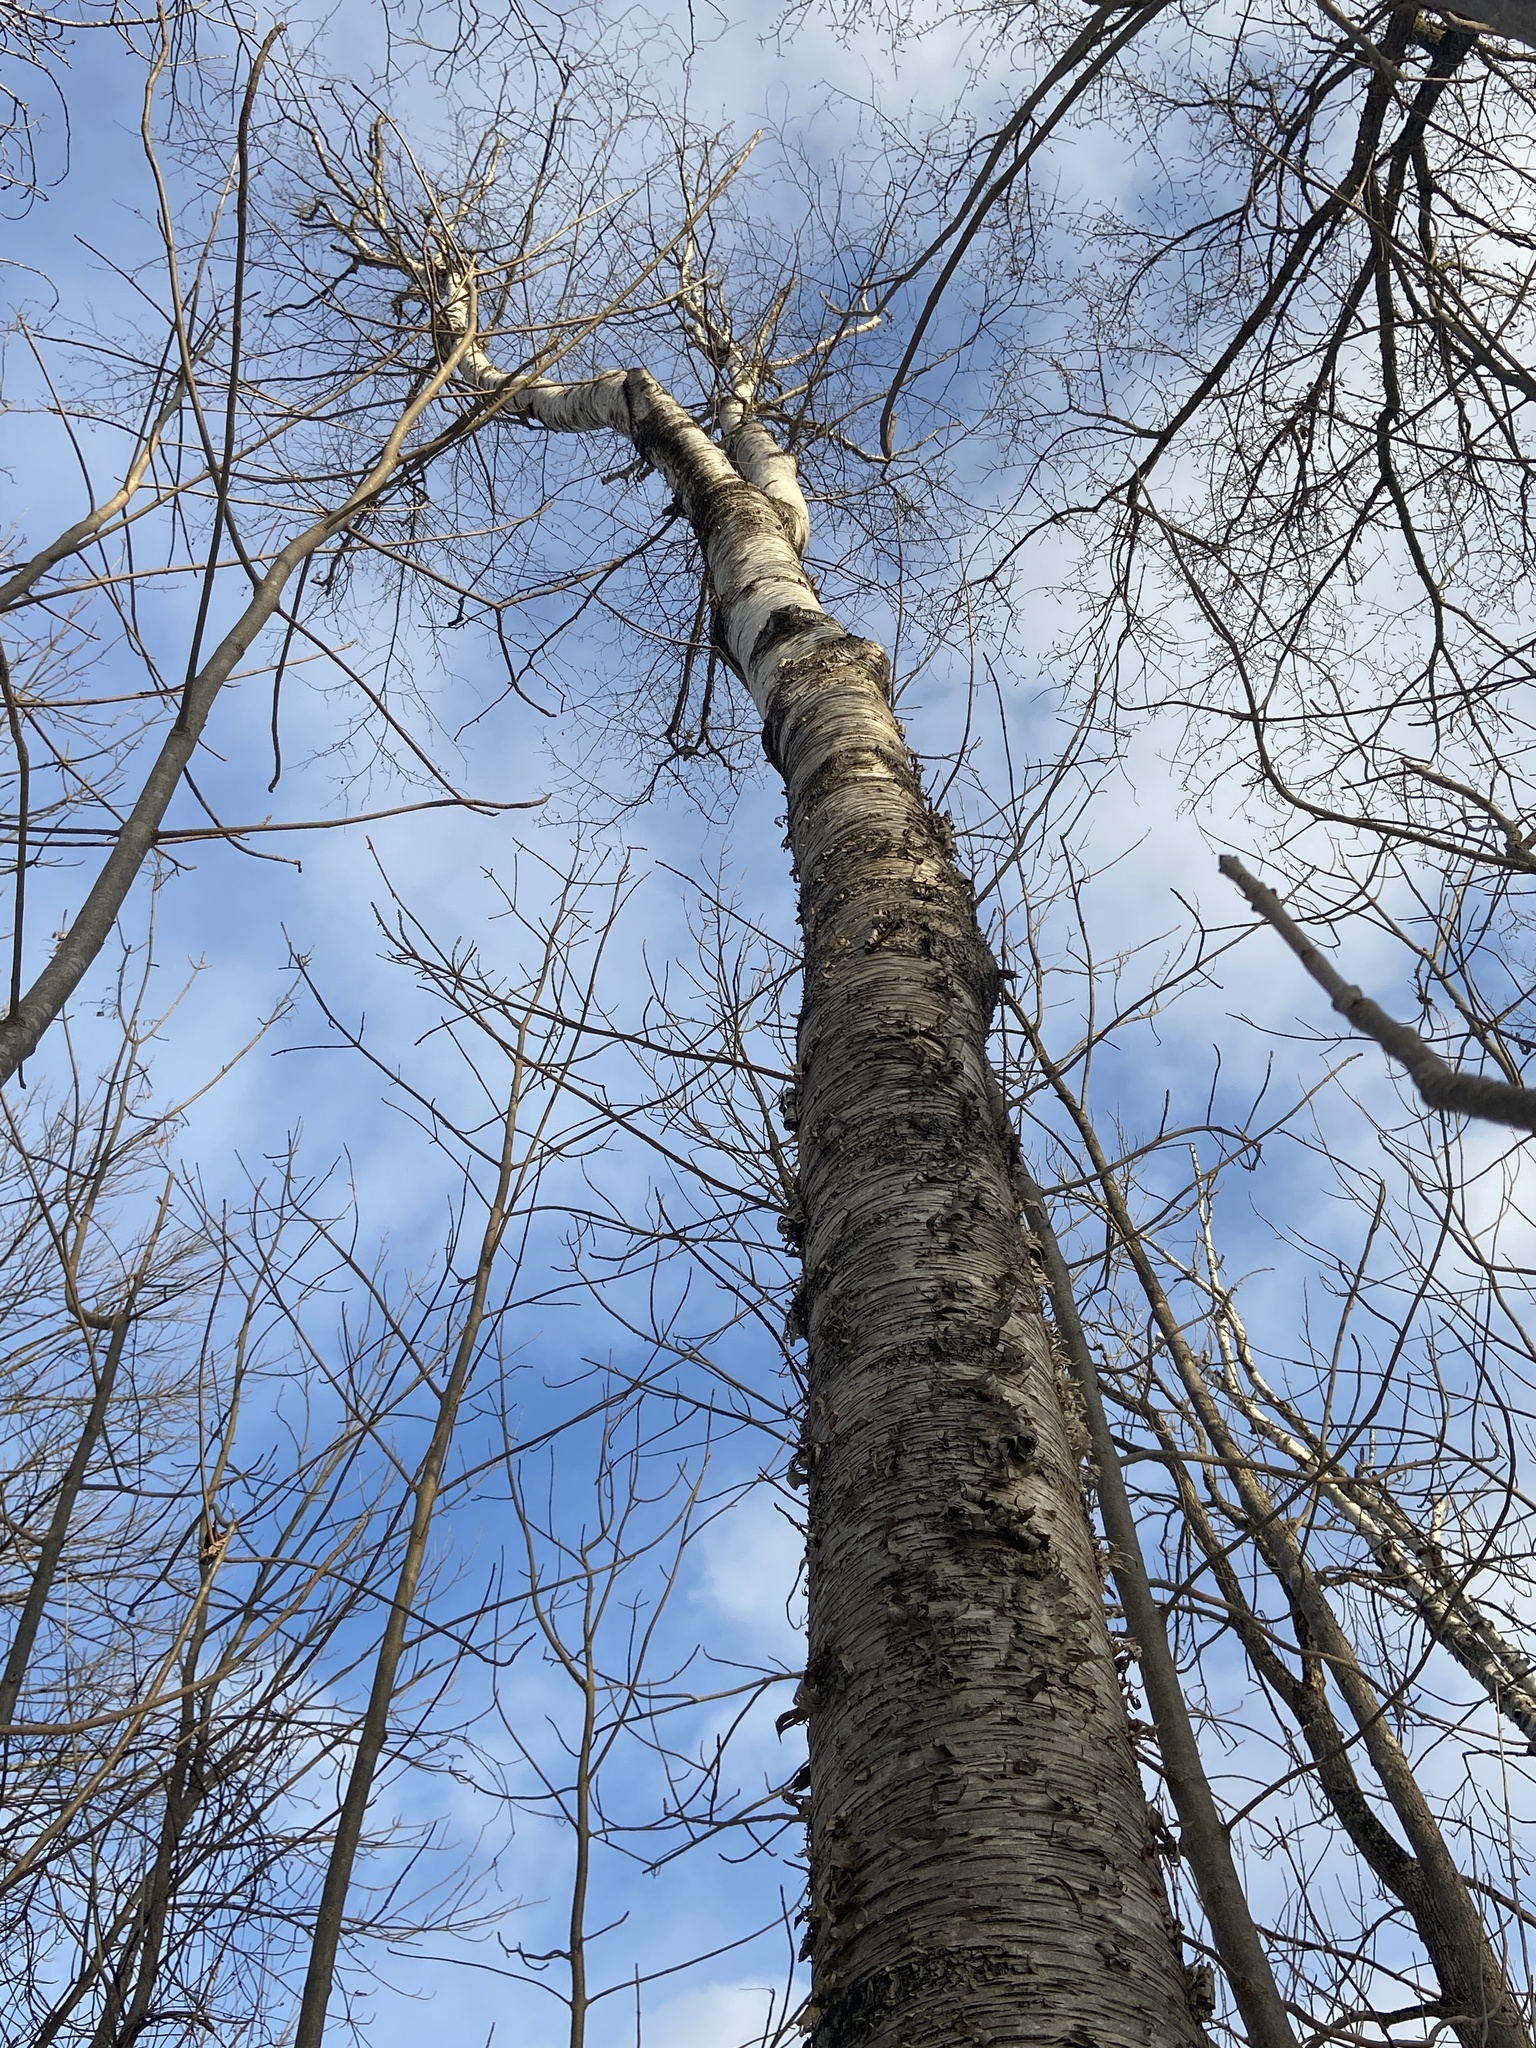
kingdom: Plantae
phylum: Tracheophyta
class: Magnoliopsida
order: Fagales
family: Betulaceae
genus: Betula
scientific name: Betula alleghaniensis
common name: Yellow birch
